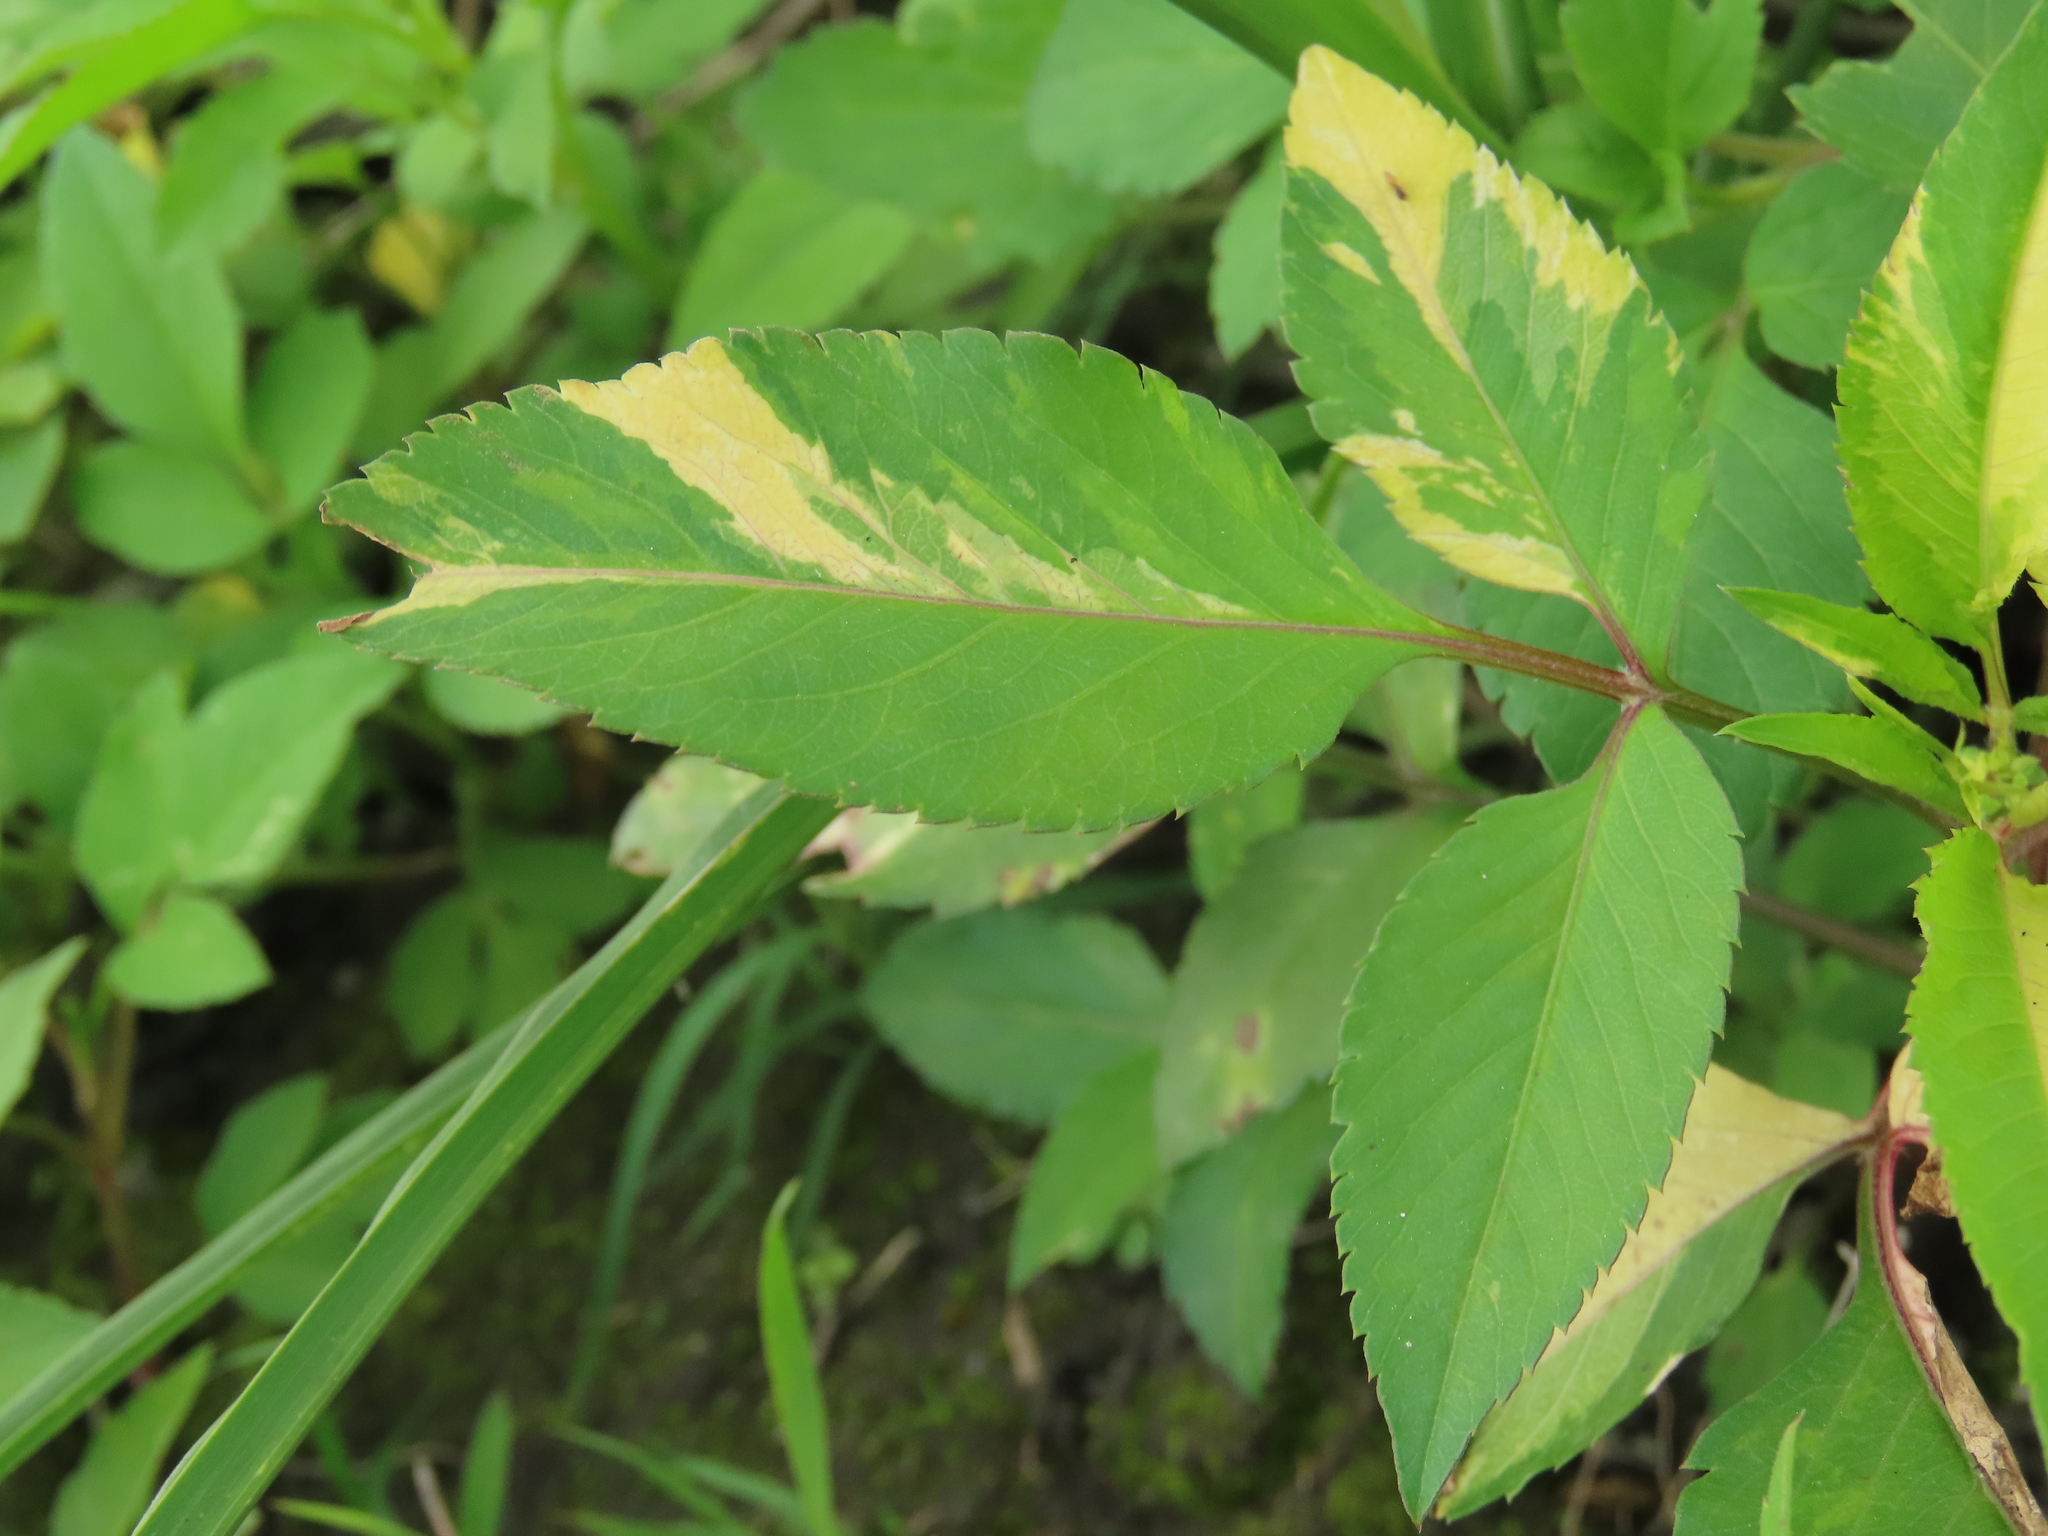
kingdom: Plantae
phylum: Tracheophyta
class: Magnoliopsida
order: Asterales
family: Asteraceae
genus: Bidens
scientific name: Bidens alba
